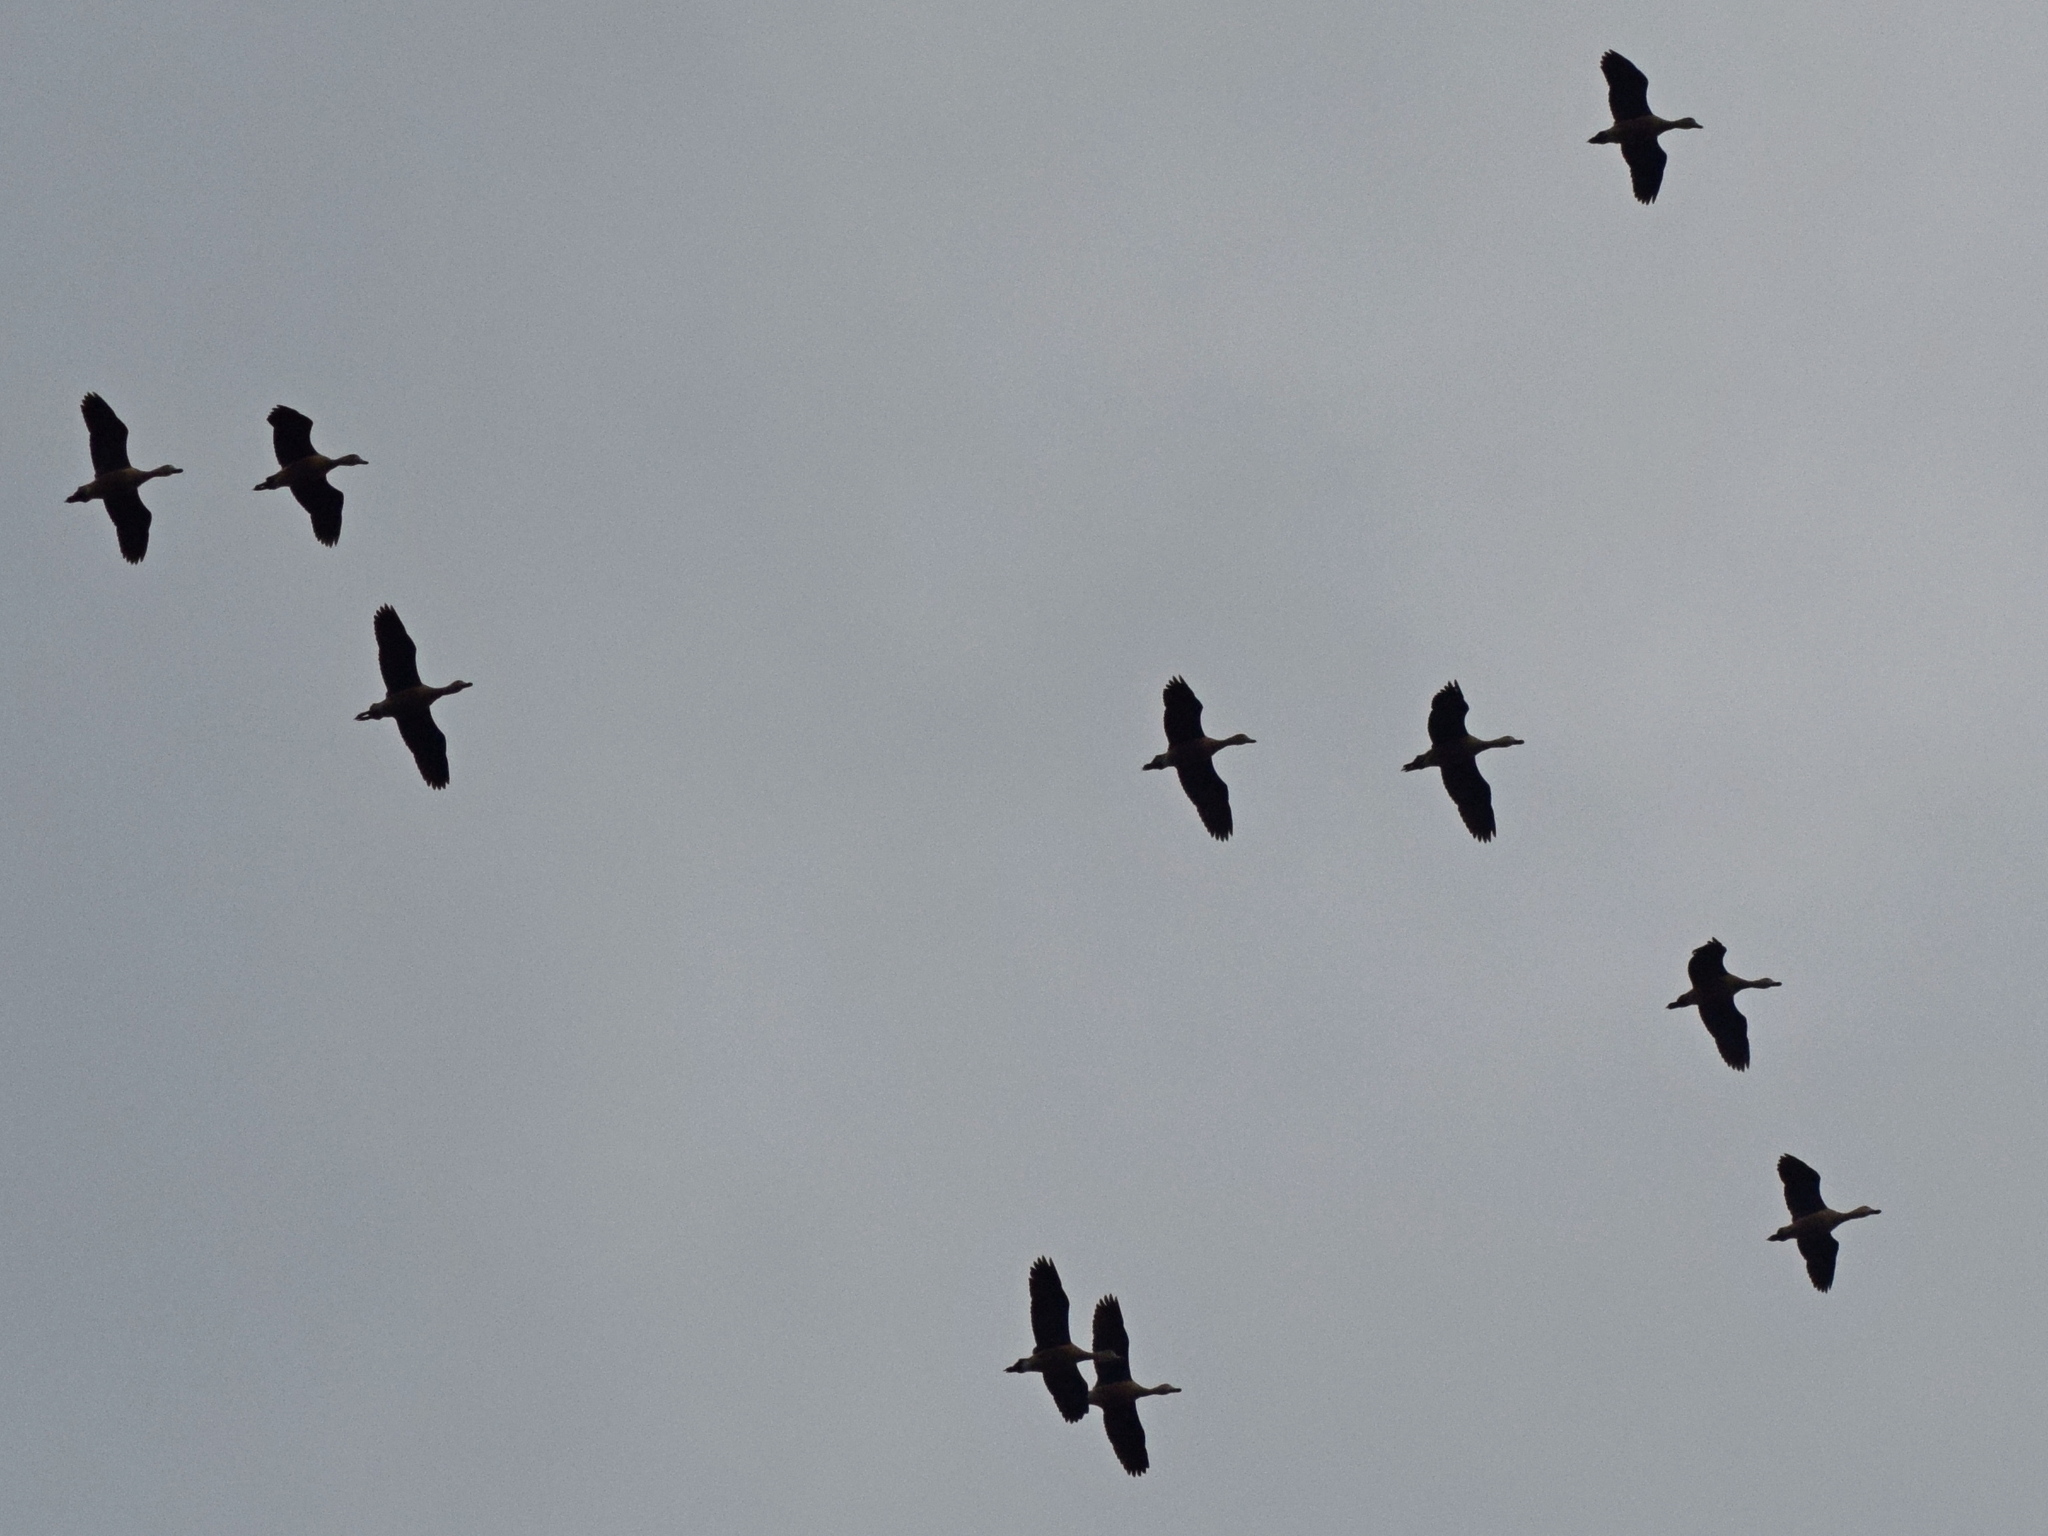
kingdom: Animalia
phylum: Chordata
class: Aves
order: Anseriformes
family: Anatidae
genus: Dendrocygna
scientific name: Dendrocygna javanica
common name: Lesser whistling-duck
